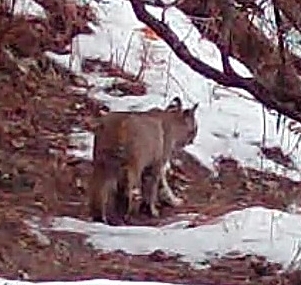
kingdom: Animalia
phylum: Chordata
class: Mammalia
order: Carnivora
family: Felidae
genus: Lynx
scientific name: Lynx rufus
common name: Bobcat
